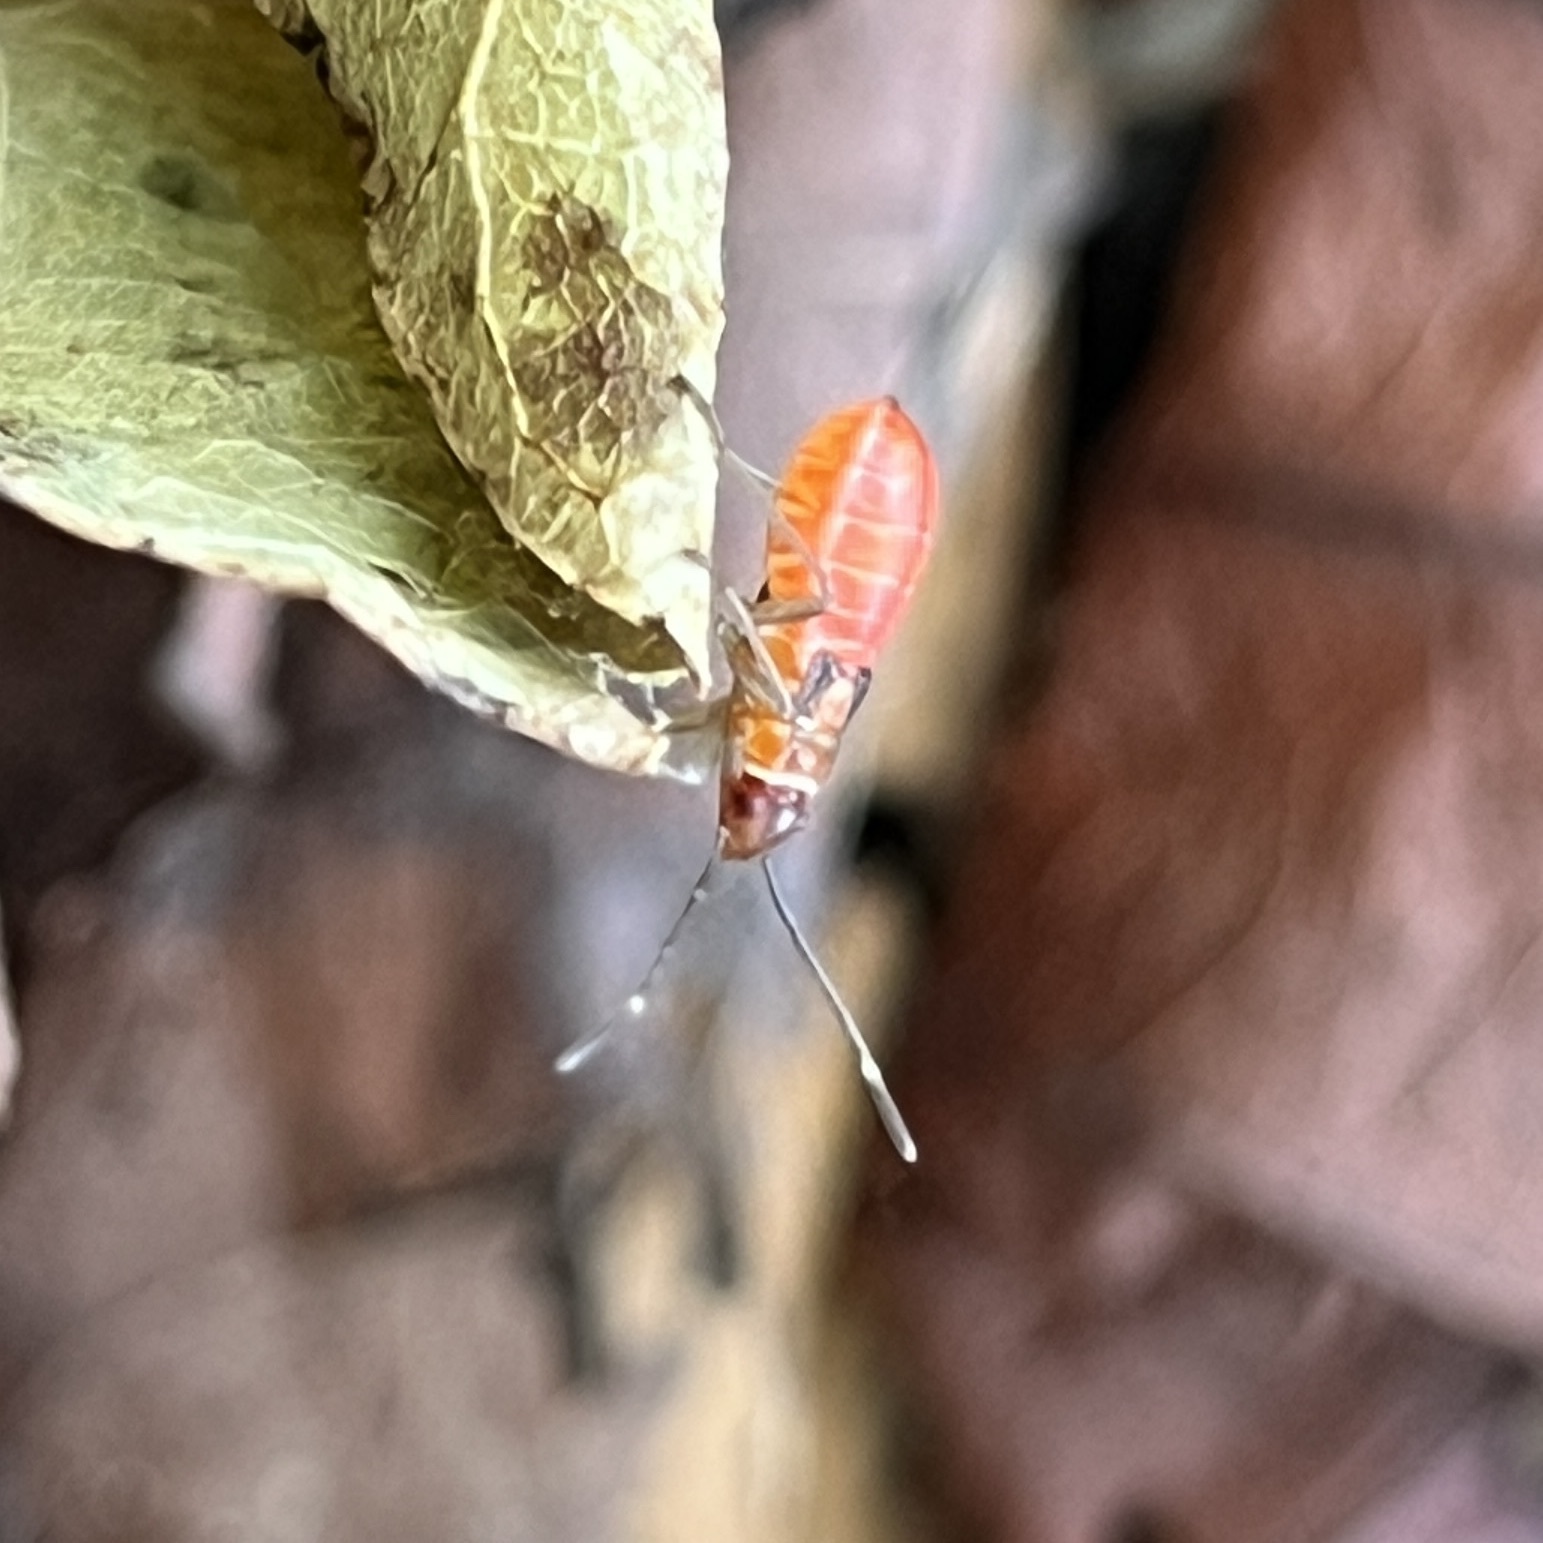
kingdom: Animalia
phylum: Arthropoda
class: Insecta
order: Hemiptera
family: Lygaeidae
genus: Oncopeltus
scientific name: Oncopeltus cingulifer
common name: Lygaeid bug
